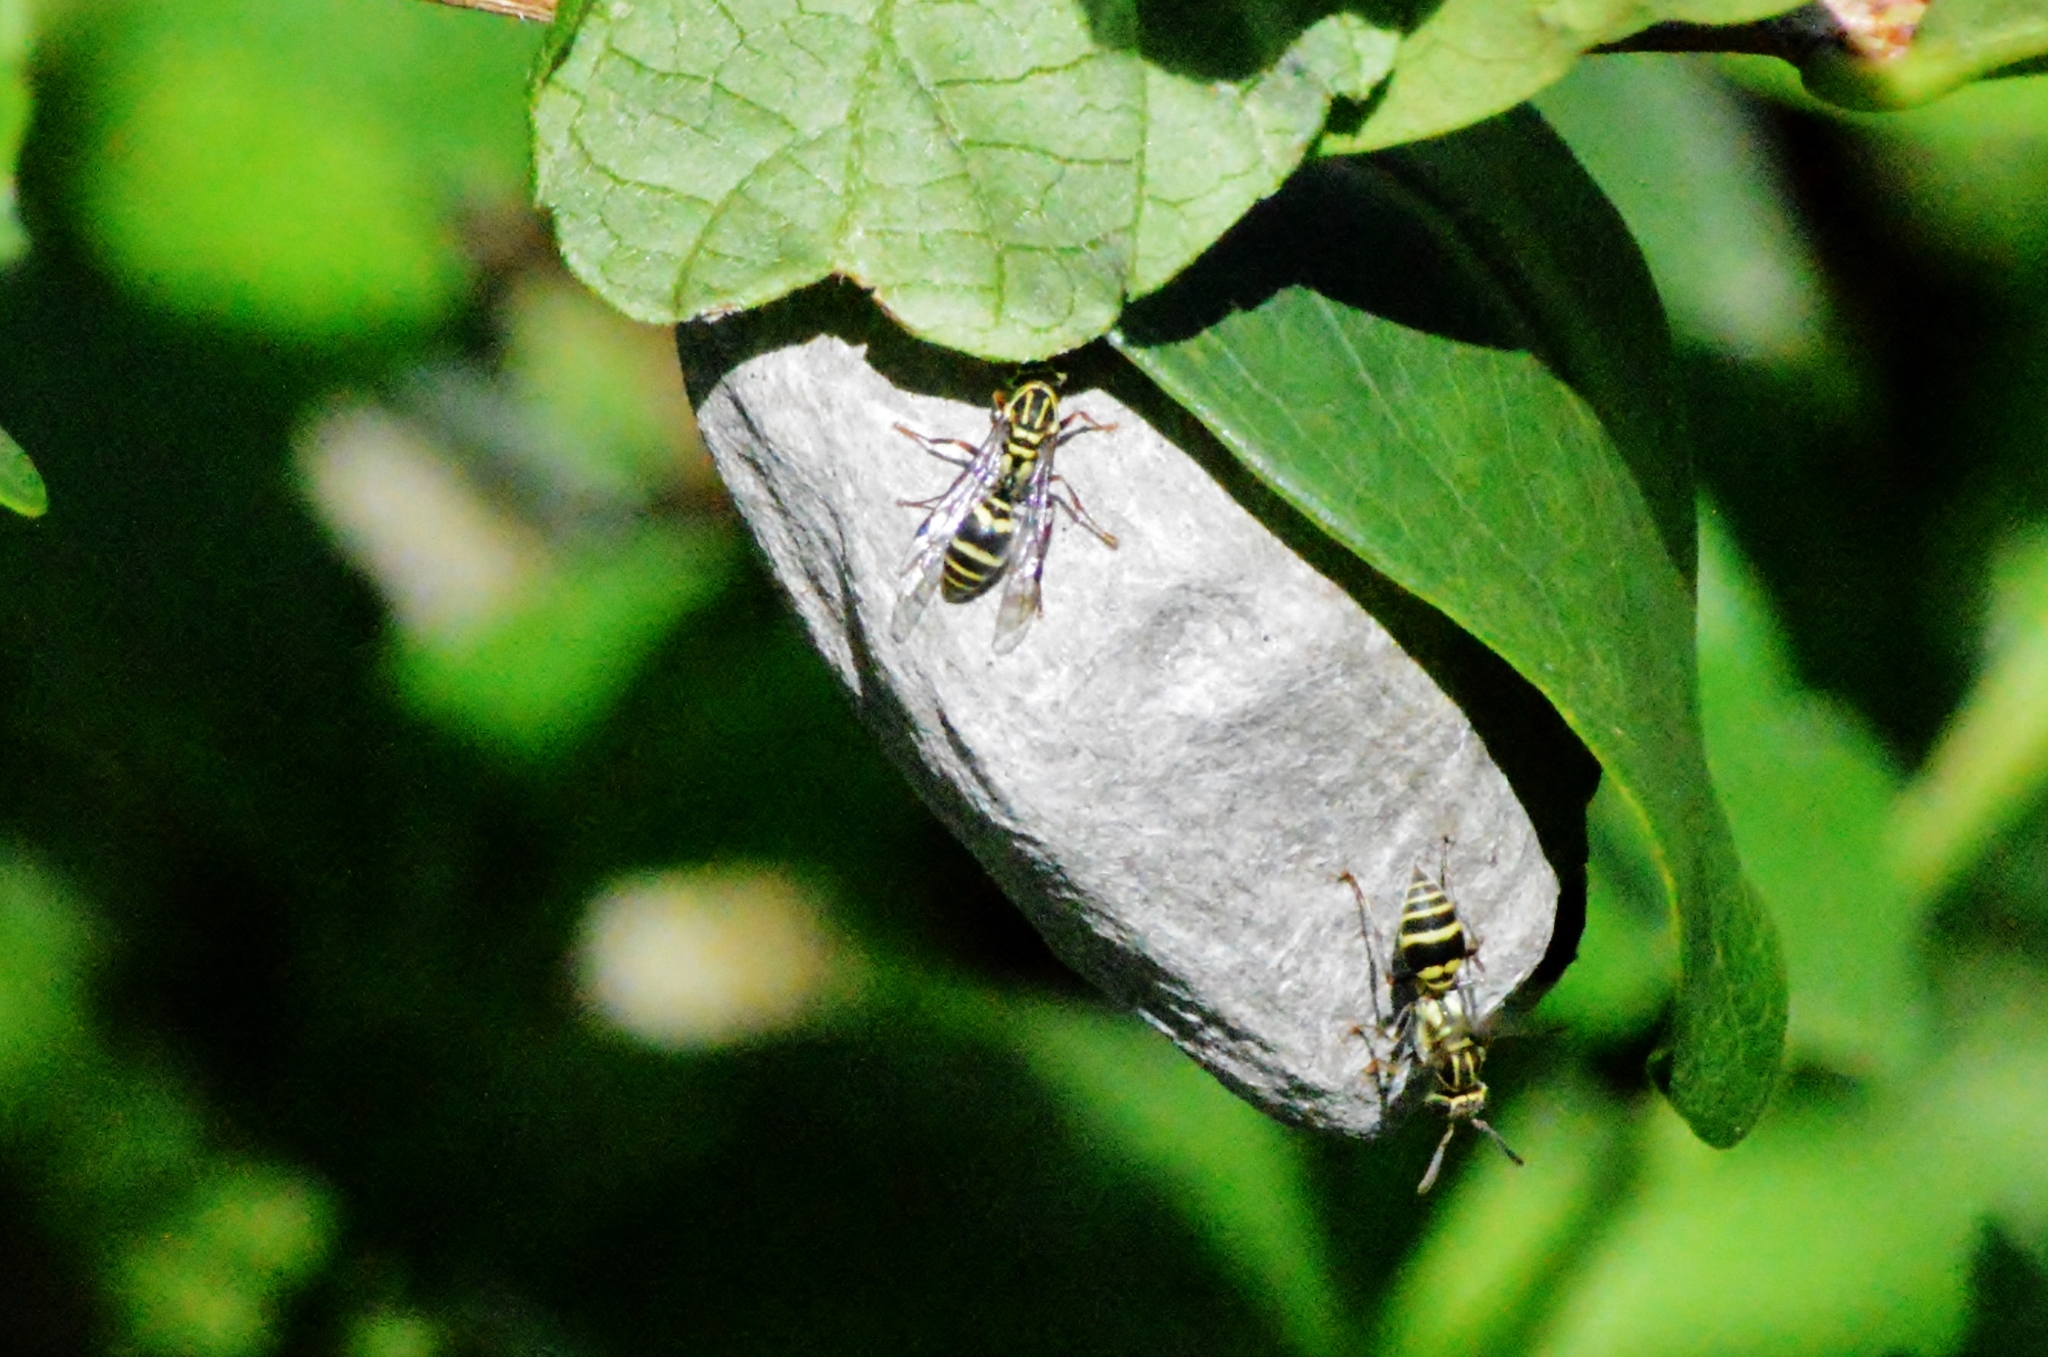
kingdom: Animalia
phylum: Arthropoda
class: Insecta
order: Hymenoptera
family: Vespidae
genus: Protopolybia
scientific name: Protopolybia exigua
